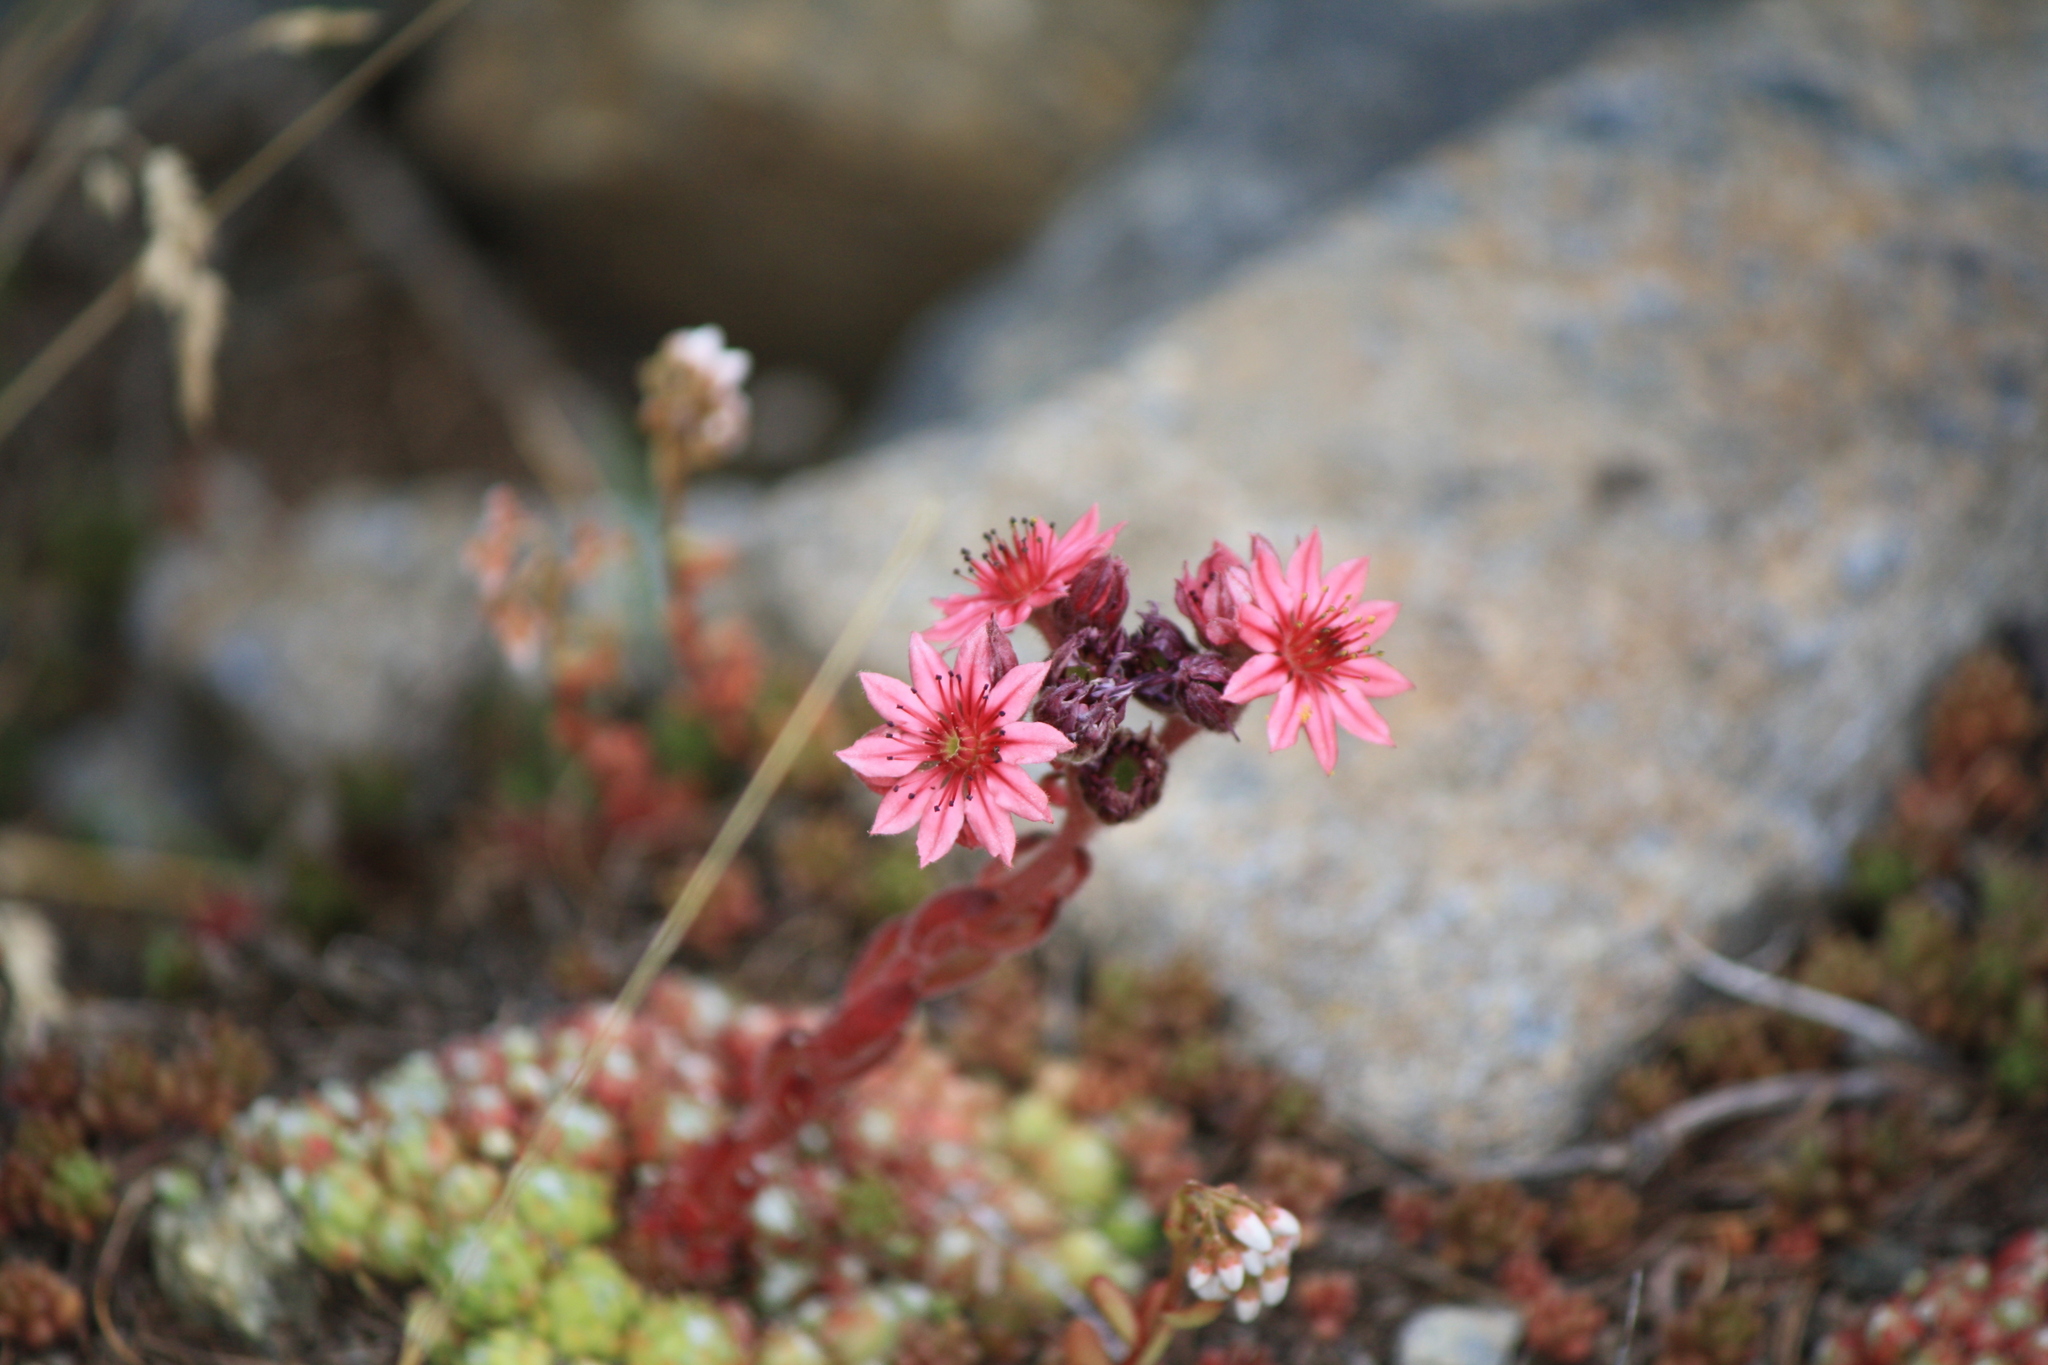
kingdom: Plantae
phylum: Tracheophyta
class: Magnoliopsida
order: Saxifragales
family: Crassulaceae
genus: Sempervivum
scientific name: Sempervivum arachnoideum
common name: Cobweb house-leek
